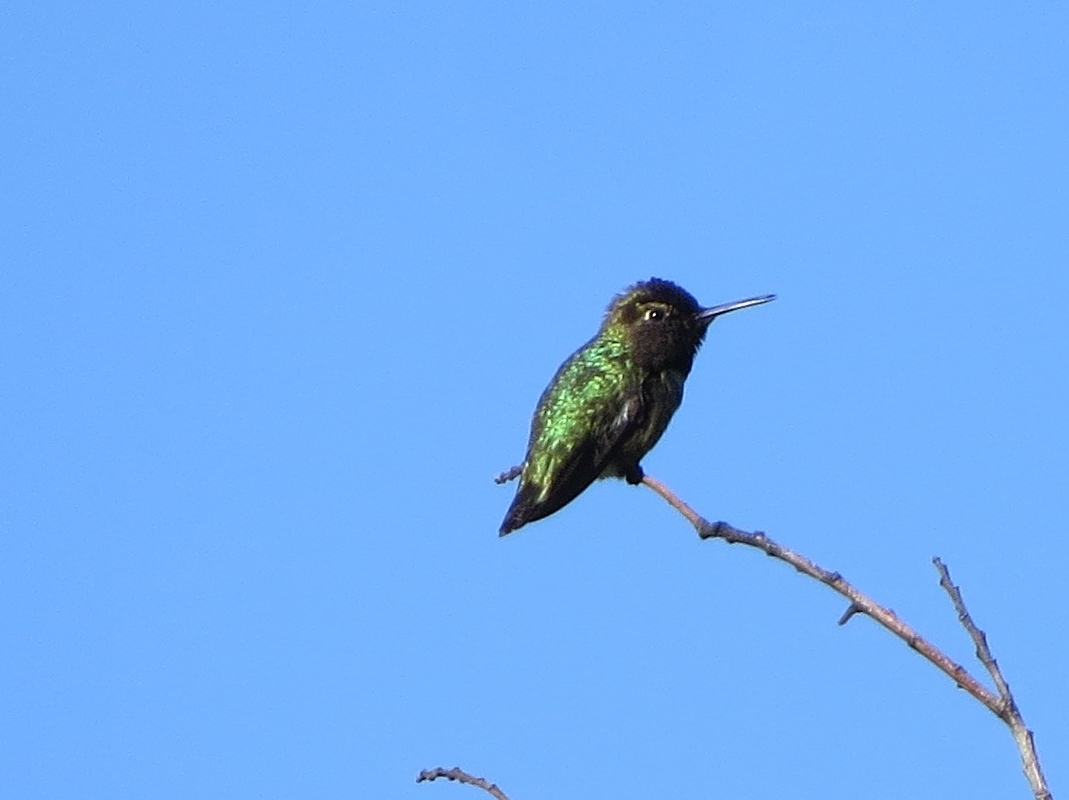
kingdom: Animalia
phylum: Chordata
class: Aves
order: Apodiformes
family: Trochilidae
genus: Calypte
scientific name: Calypte anna
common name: Anna's hummingbird
